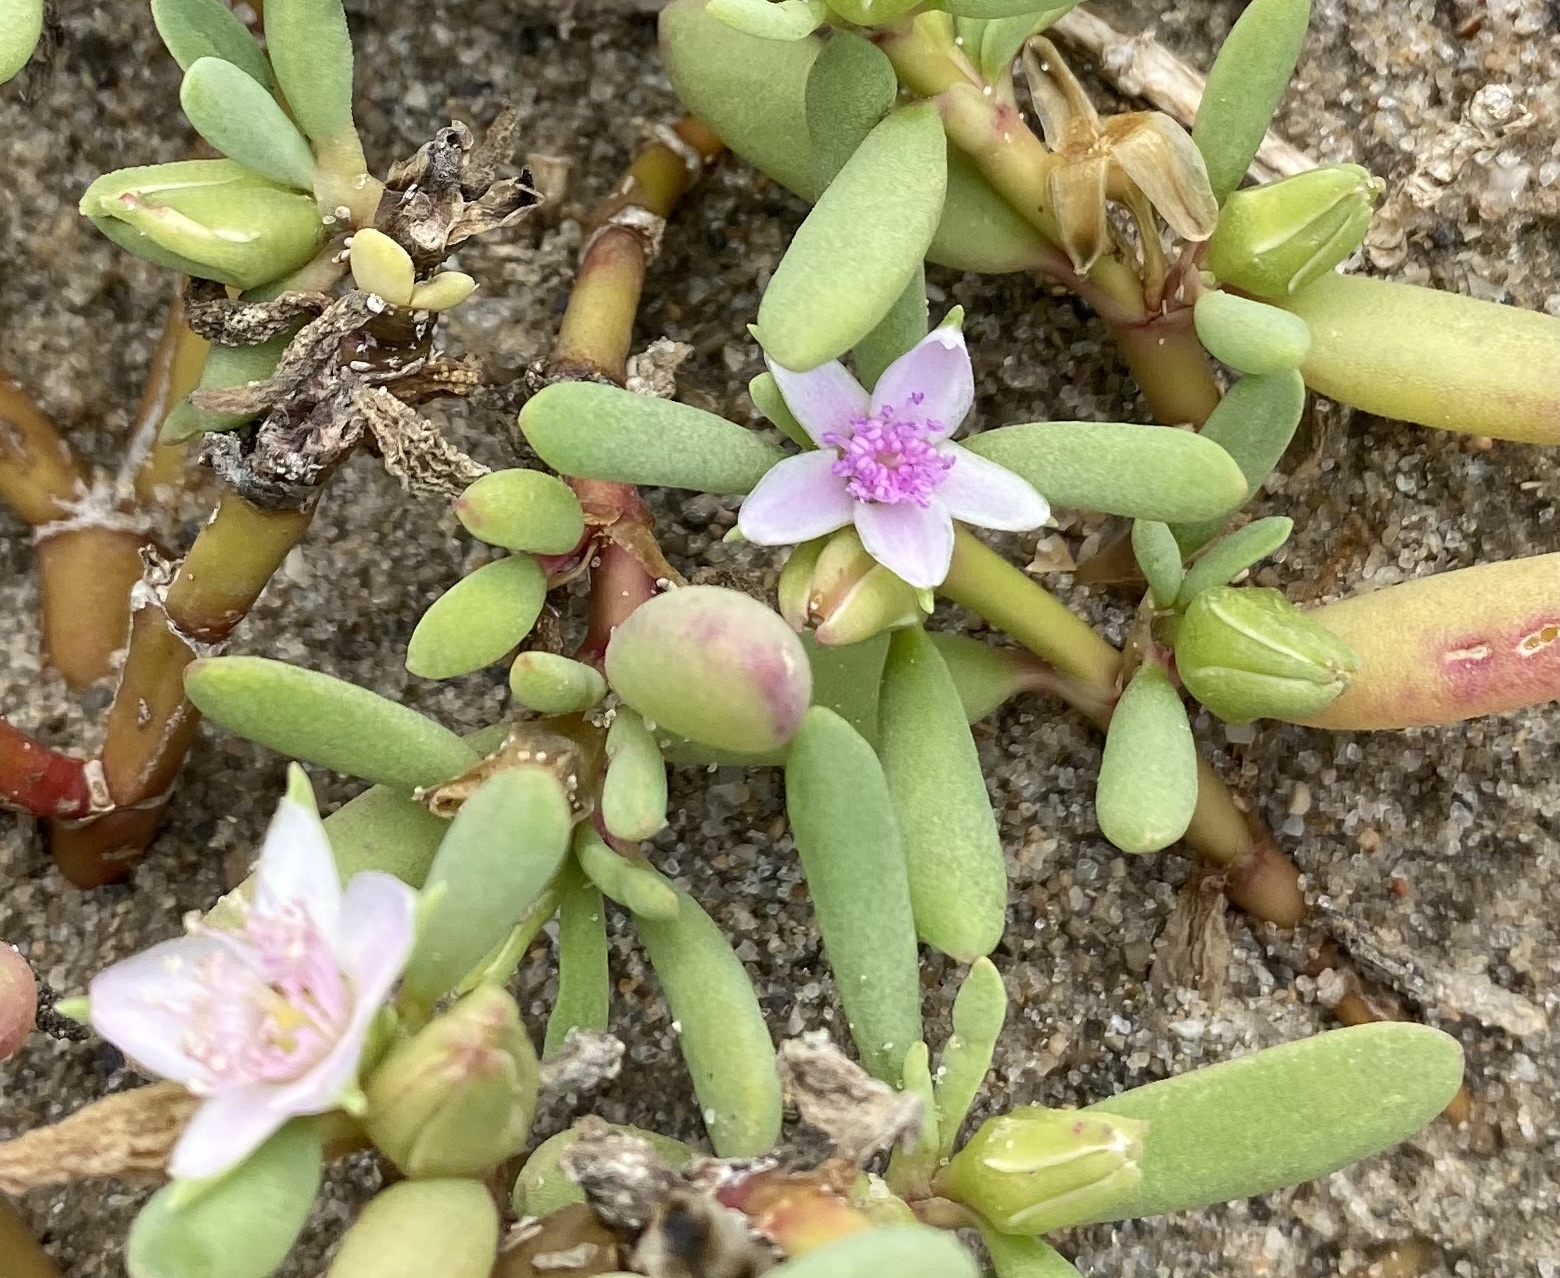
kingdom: Plantae
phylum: Tracheophyta
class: Magnoliopsida
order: Caryophyllales
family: Aizoaceae
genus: Sesuvium
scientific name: Sesuvium portulacastrum
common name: Sea-purslane
